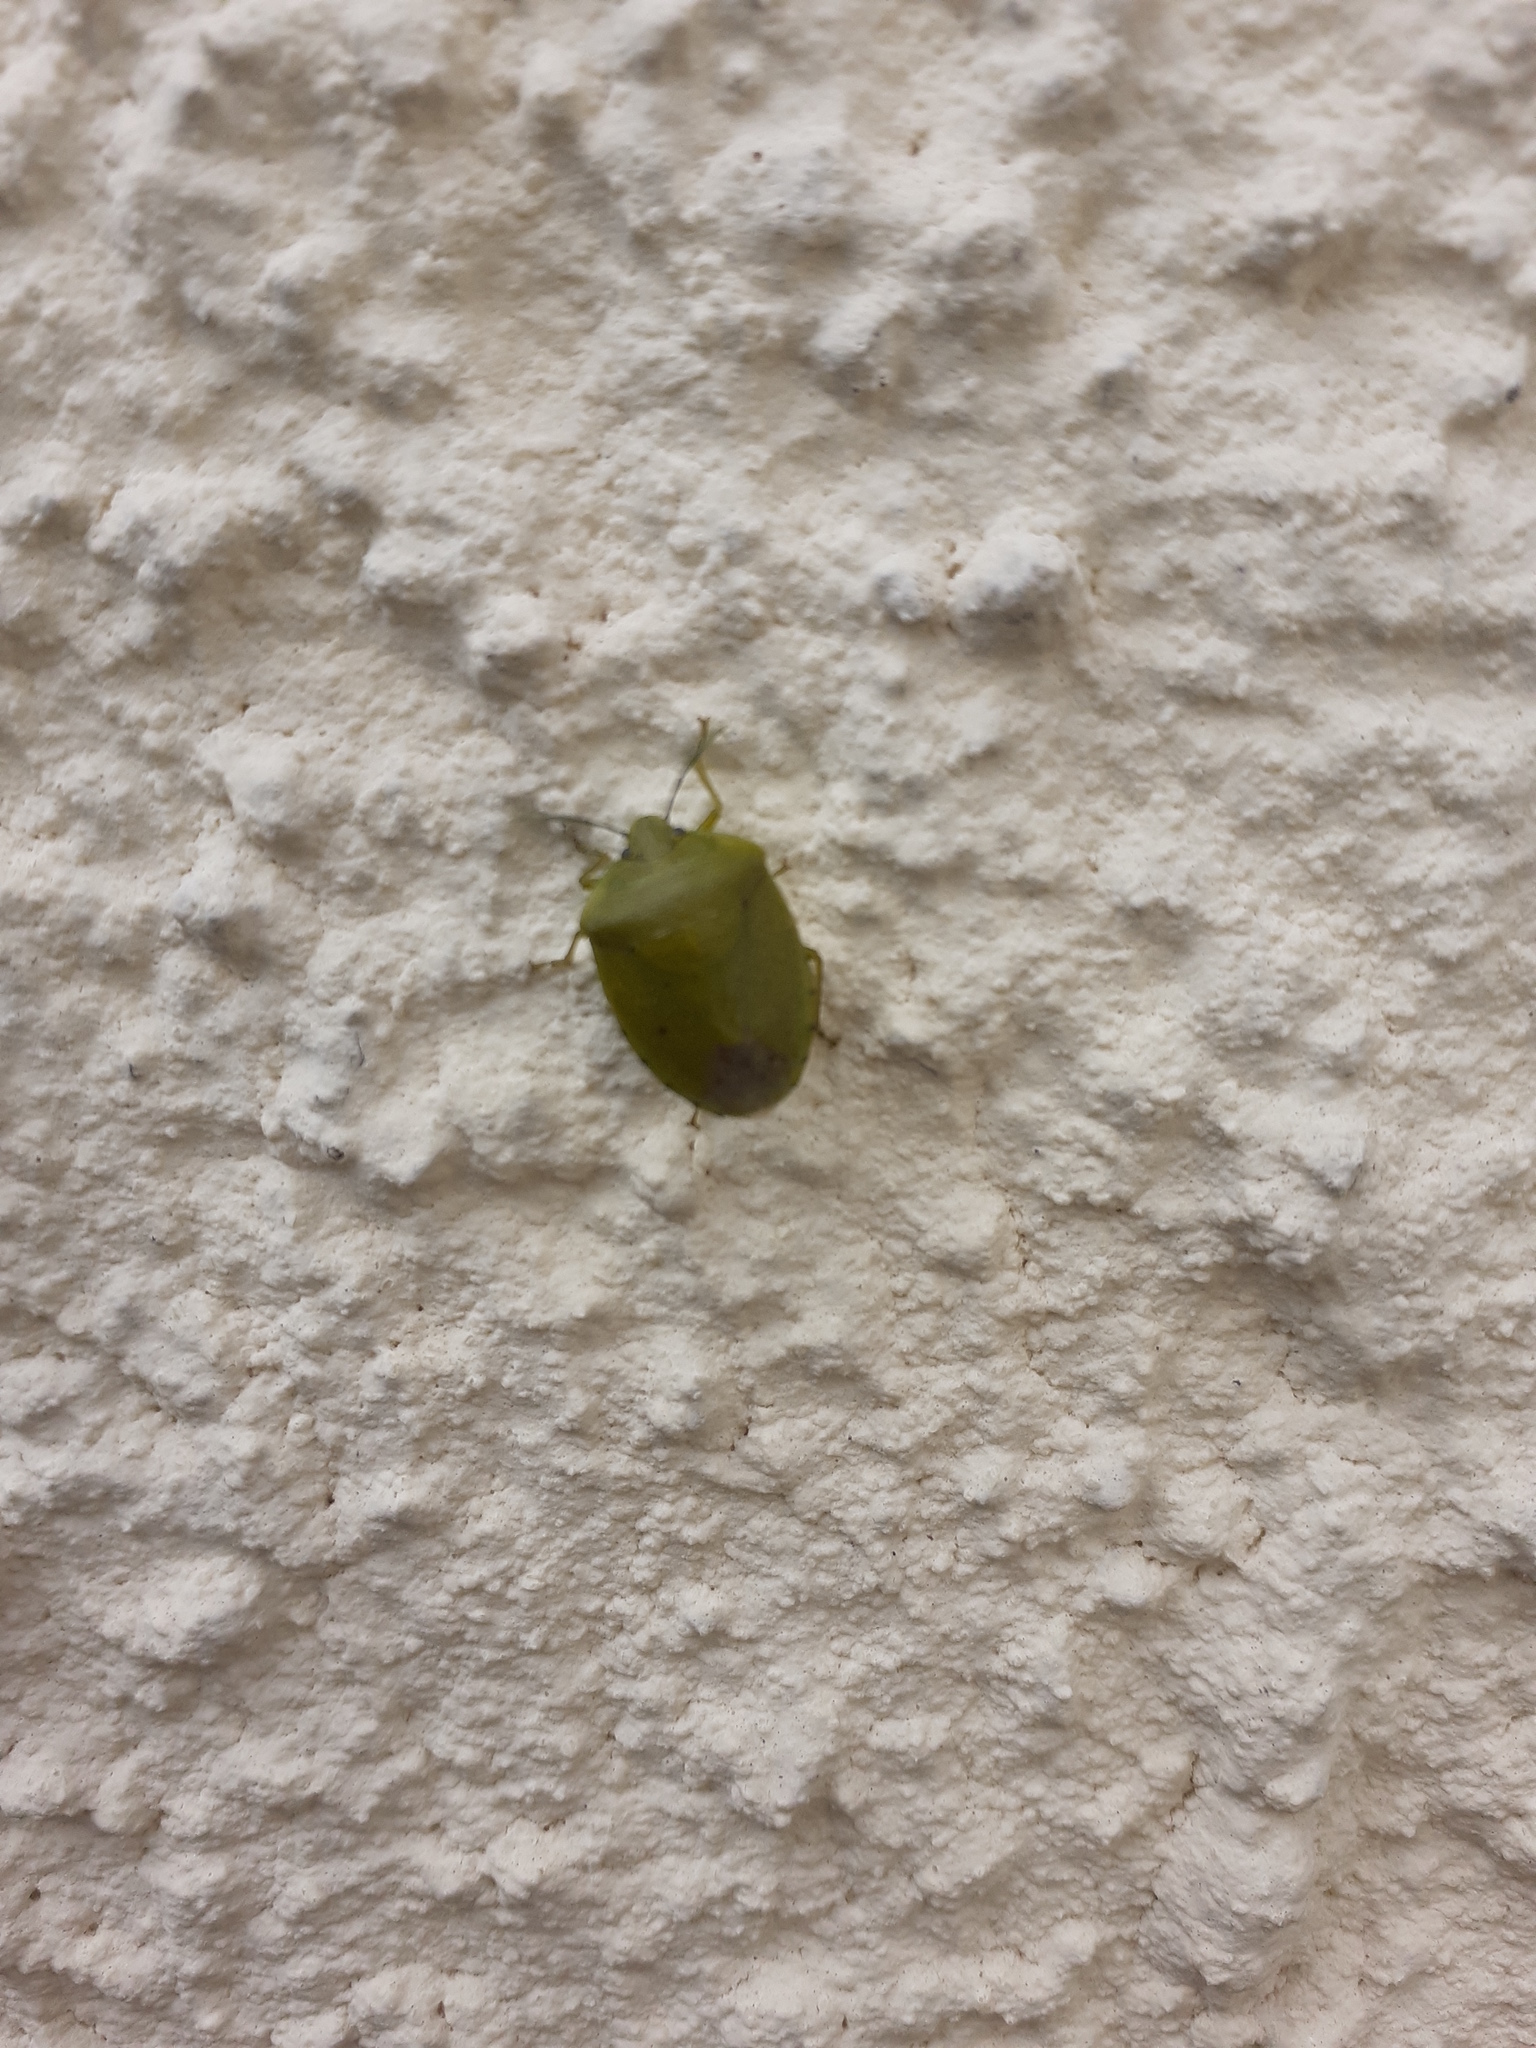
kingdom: Animalia
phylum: Arthropoda
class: Insecta
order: Hemiptera
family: Pentatomidae
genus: Nezara
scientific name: Nezara viridula
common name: Southern green stink bug
